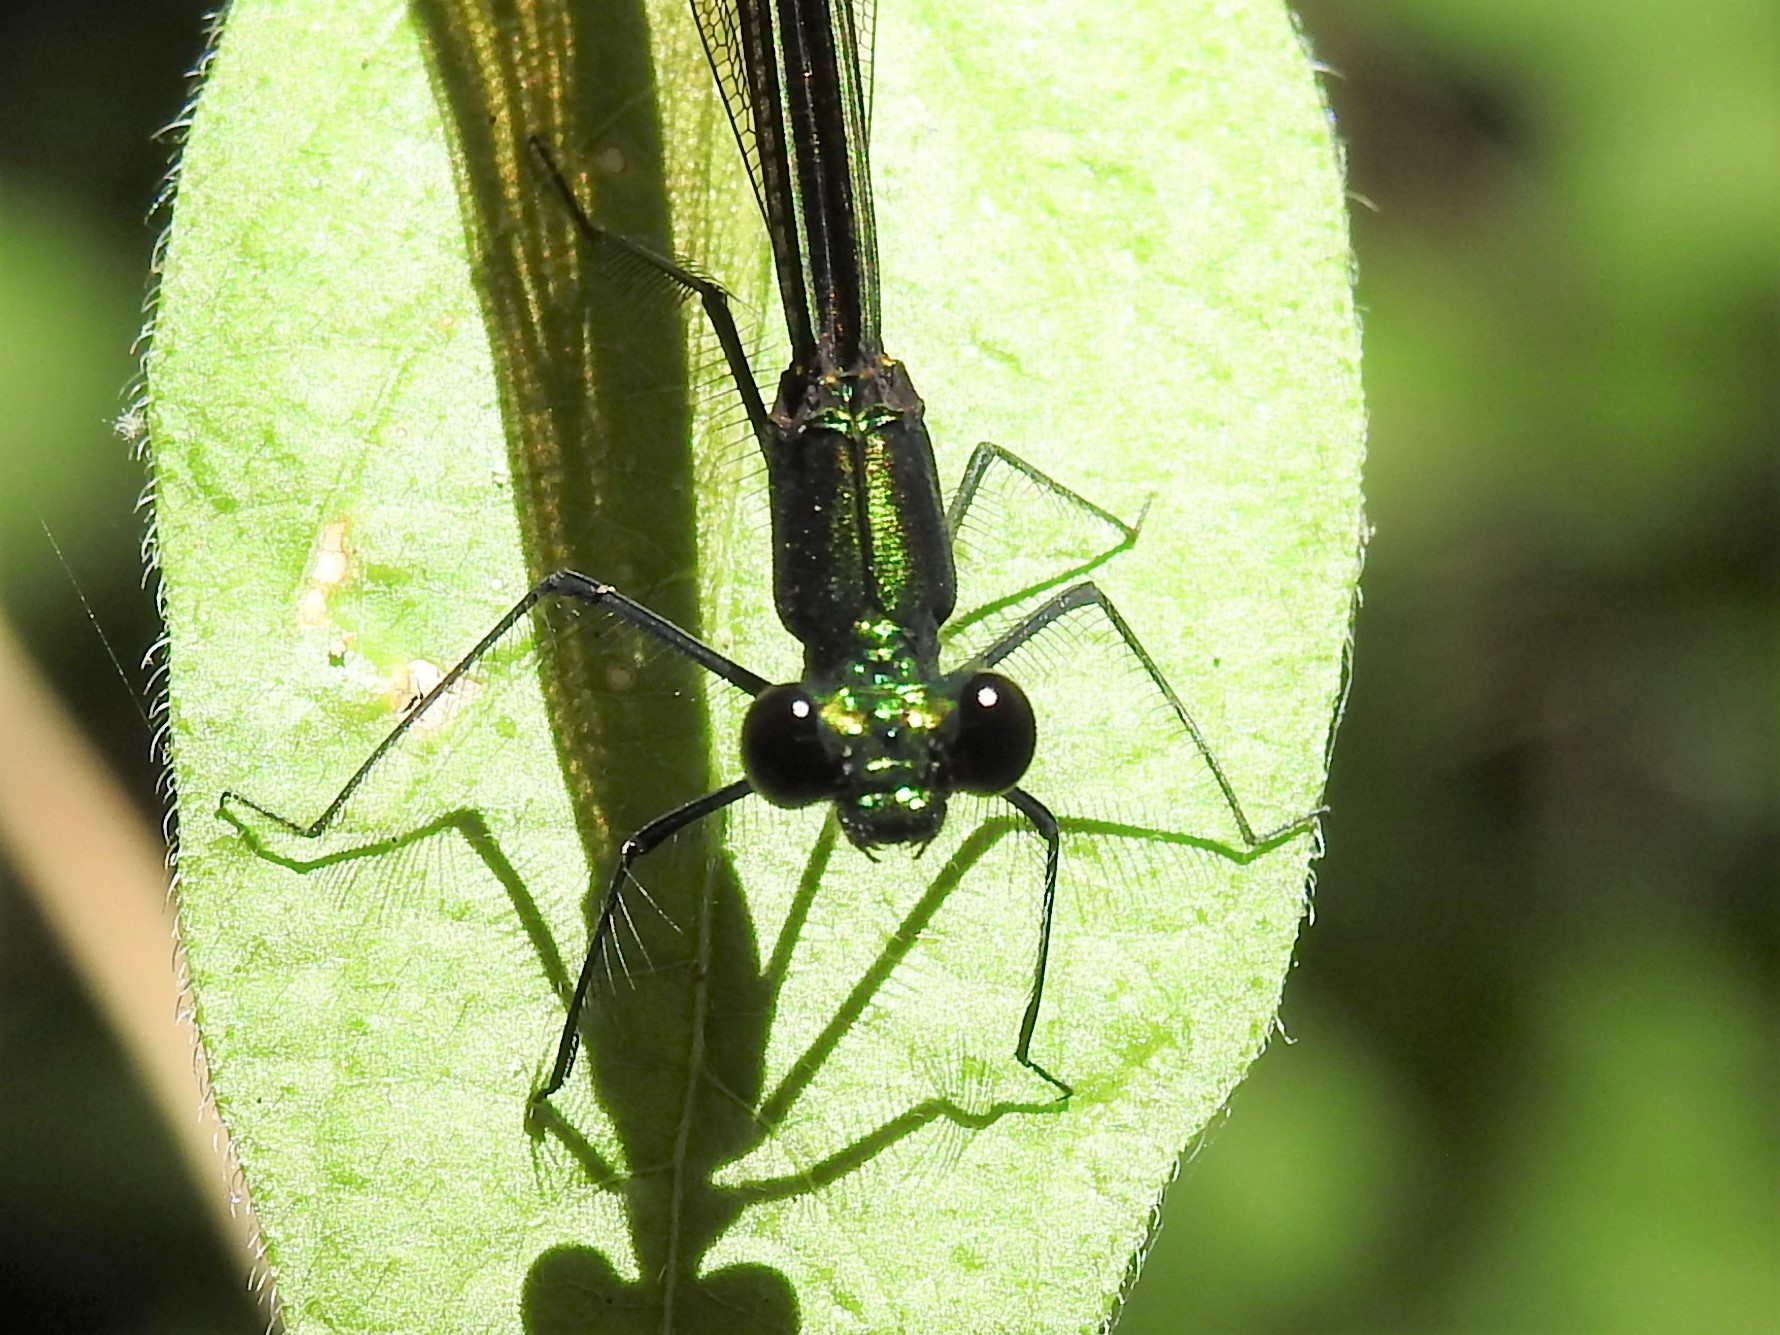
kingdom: Animalia
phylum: Arthropoda
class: Insecta
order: Odonata
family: Calopterygidae
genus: Calopteryx
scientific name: Calopteryx maculata
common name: Ebony jewelwing
